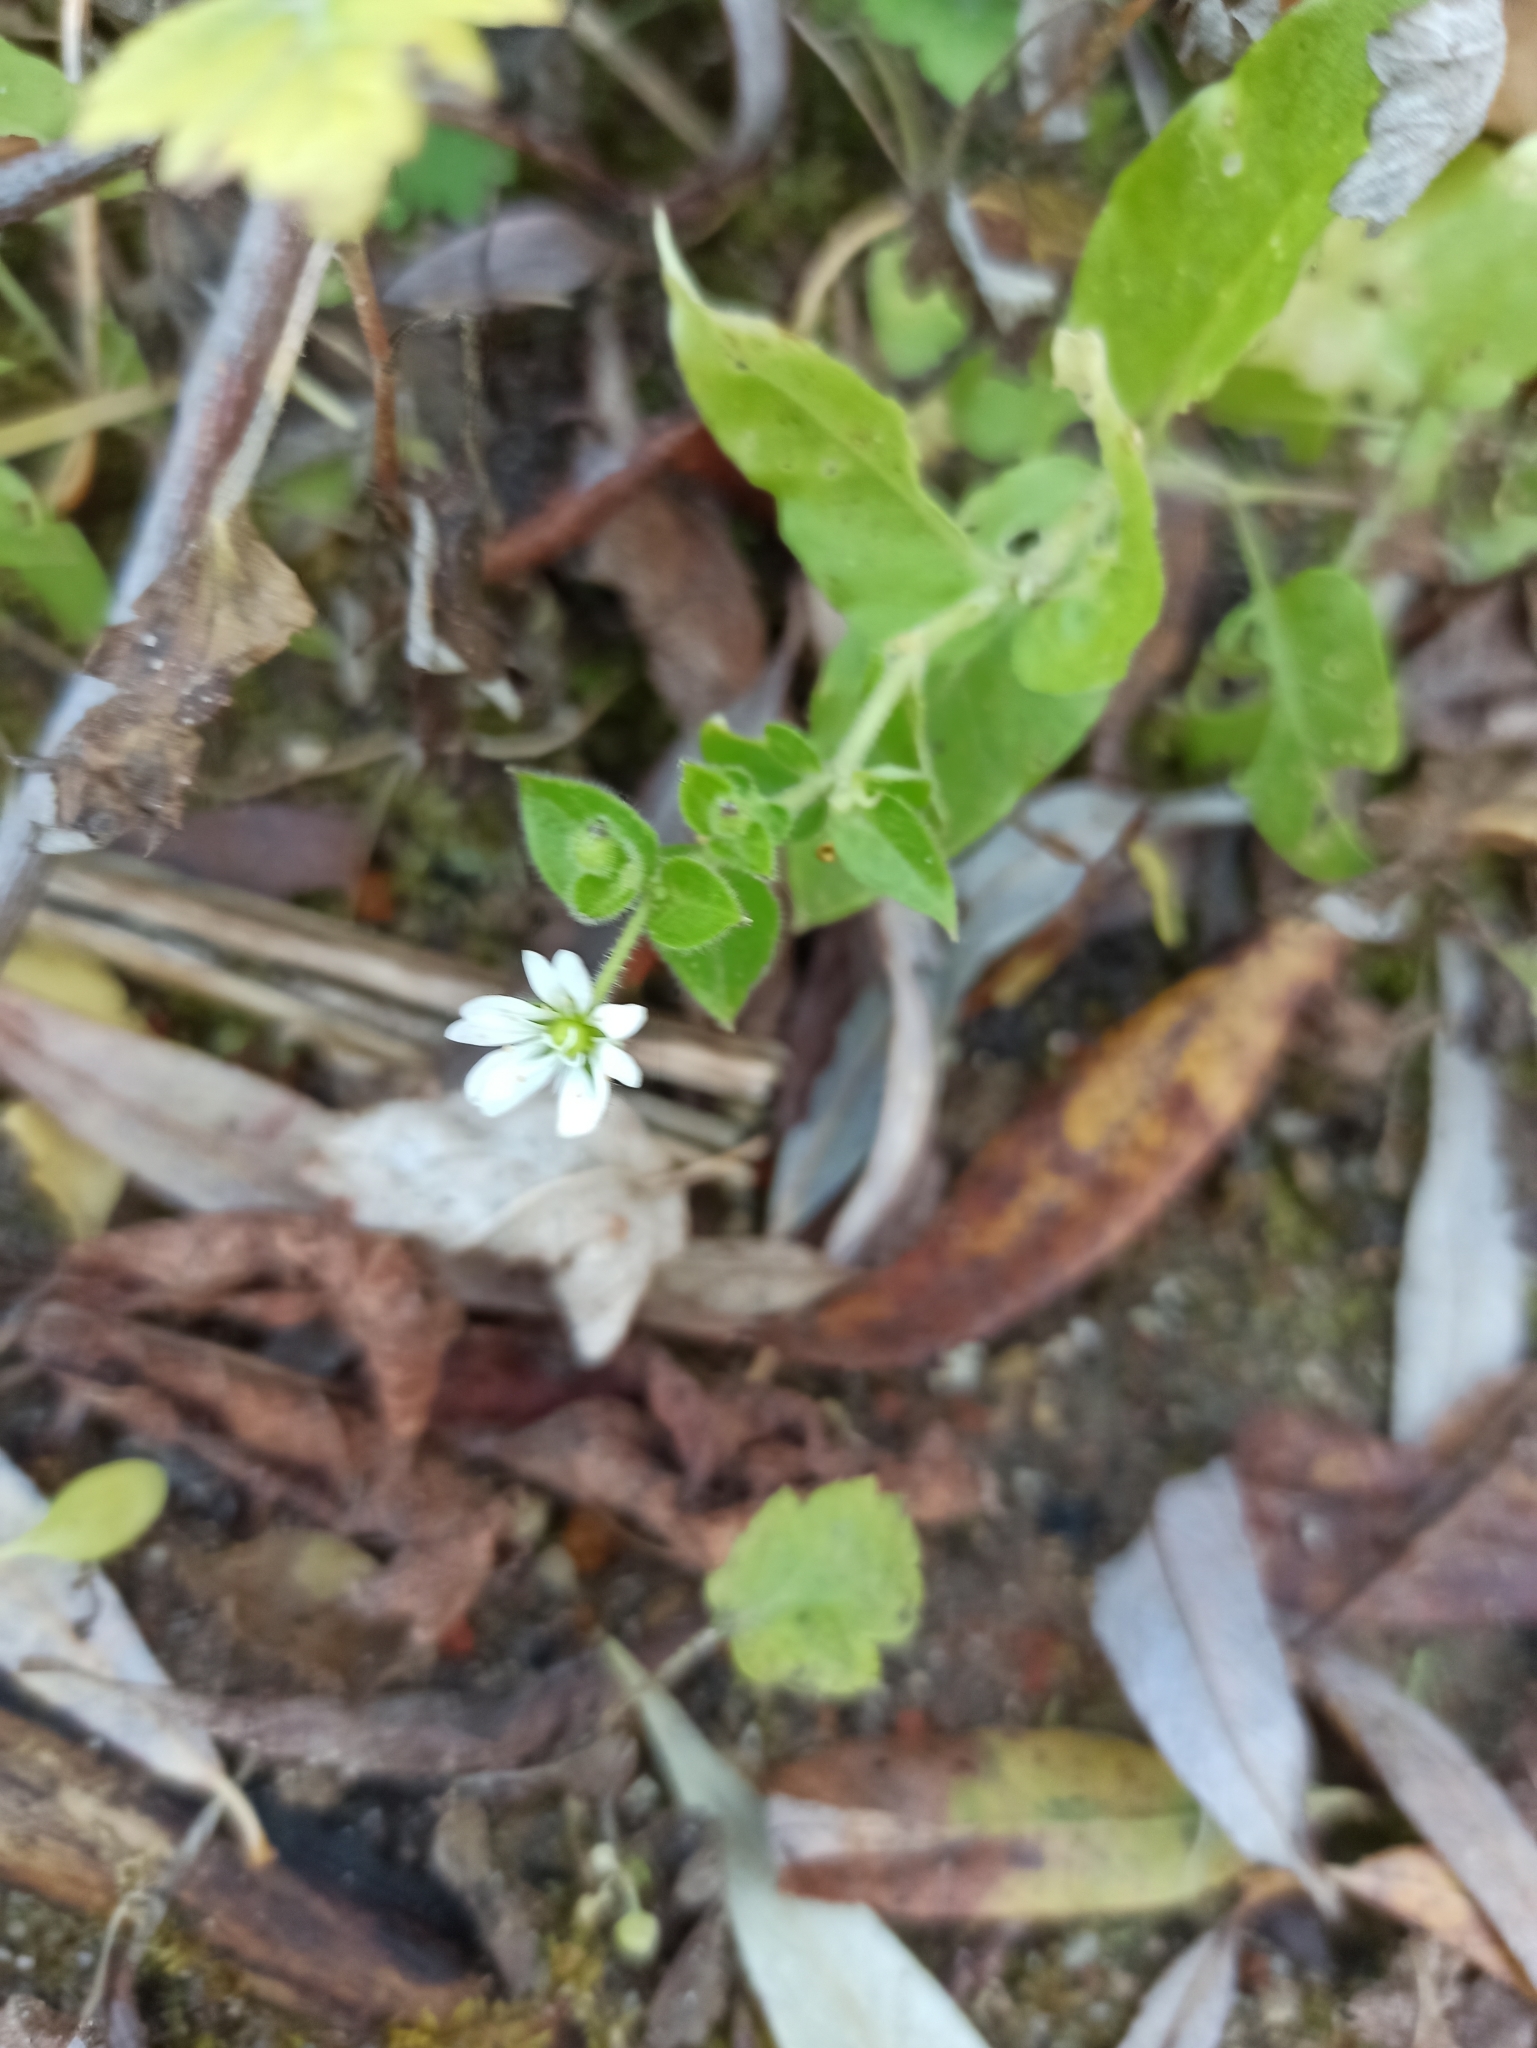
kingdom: Plantae
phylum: Tracheophyta
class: Magnoliopsida
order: Caryophyllales
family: Caryophyllaceae
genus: Stellaria
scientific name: Stellaria aquatica
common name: Water chickweed
